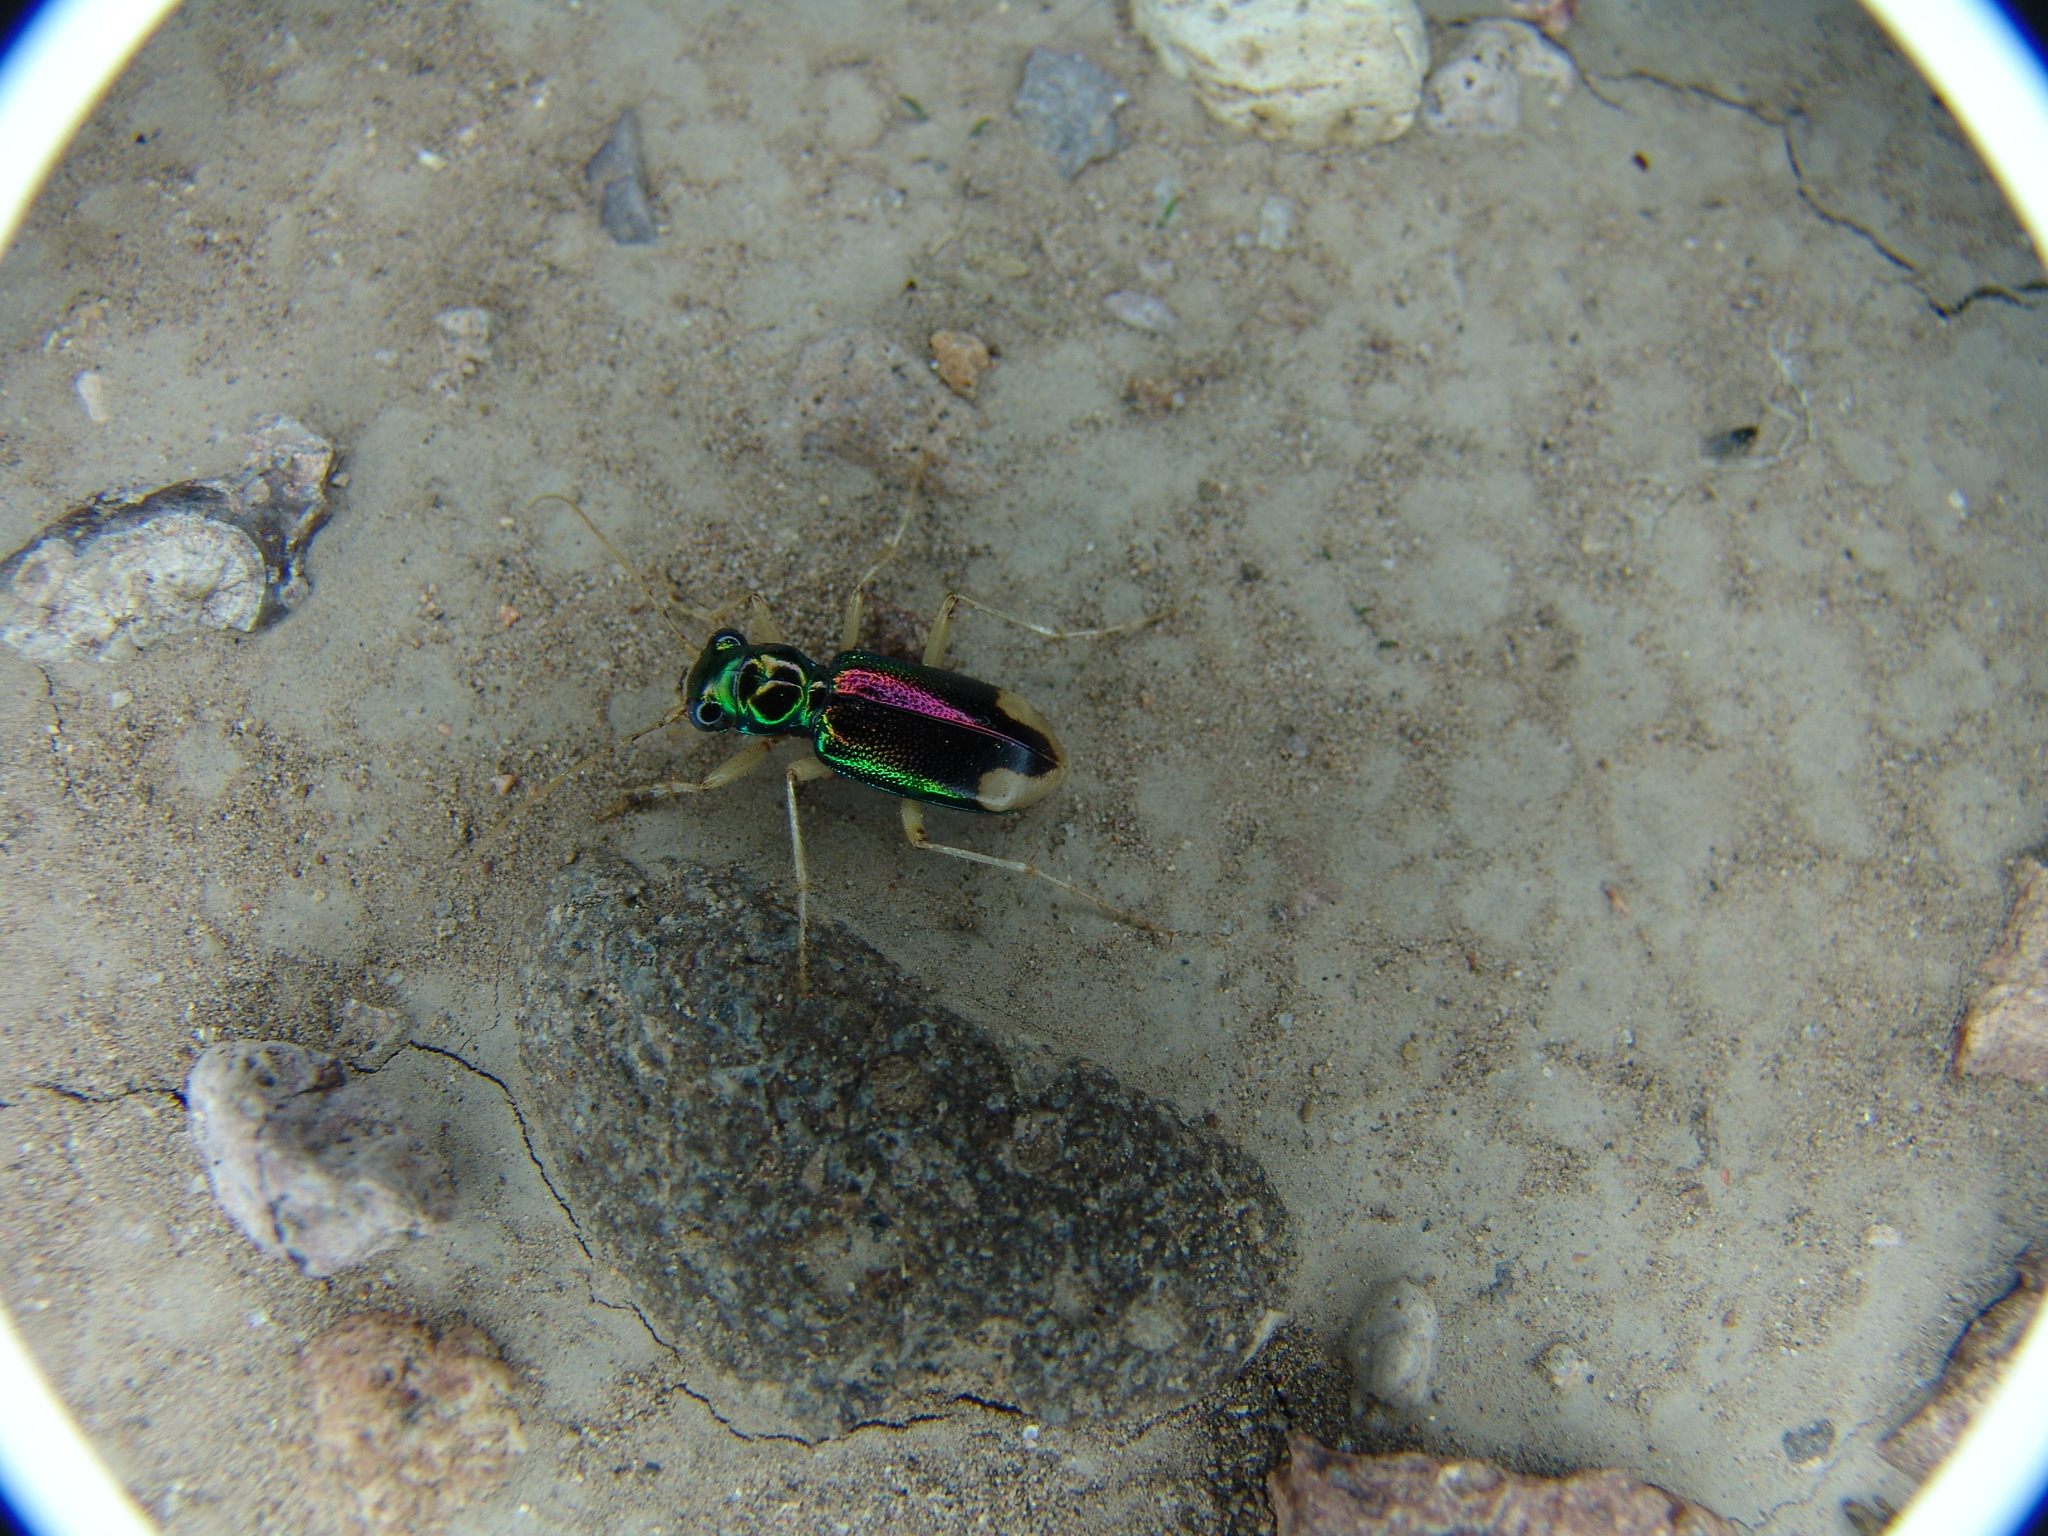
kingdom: Animalia
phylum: Arthropoda
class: Insecta
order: Coleoptera
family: Carabidae
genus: Tetracha
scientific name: Tetracha carolina
